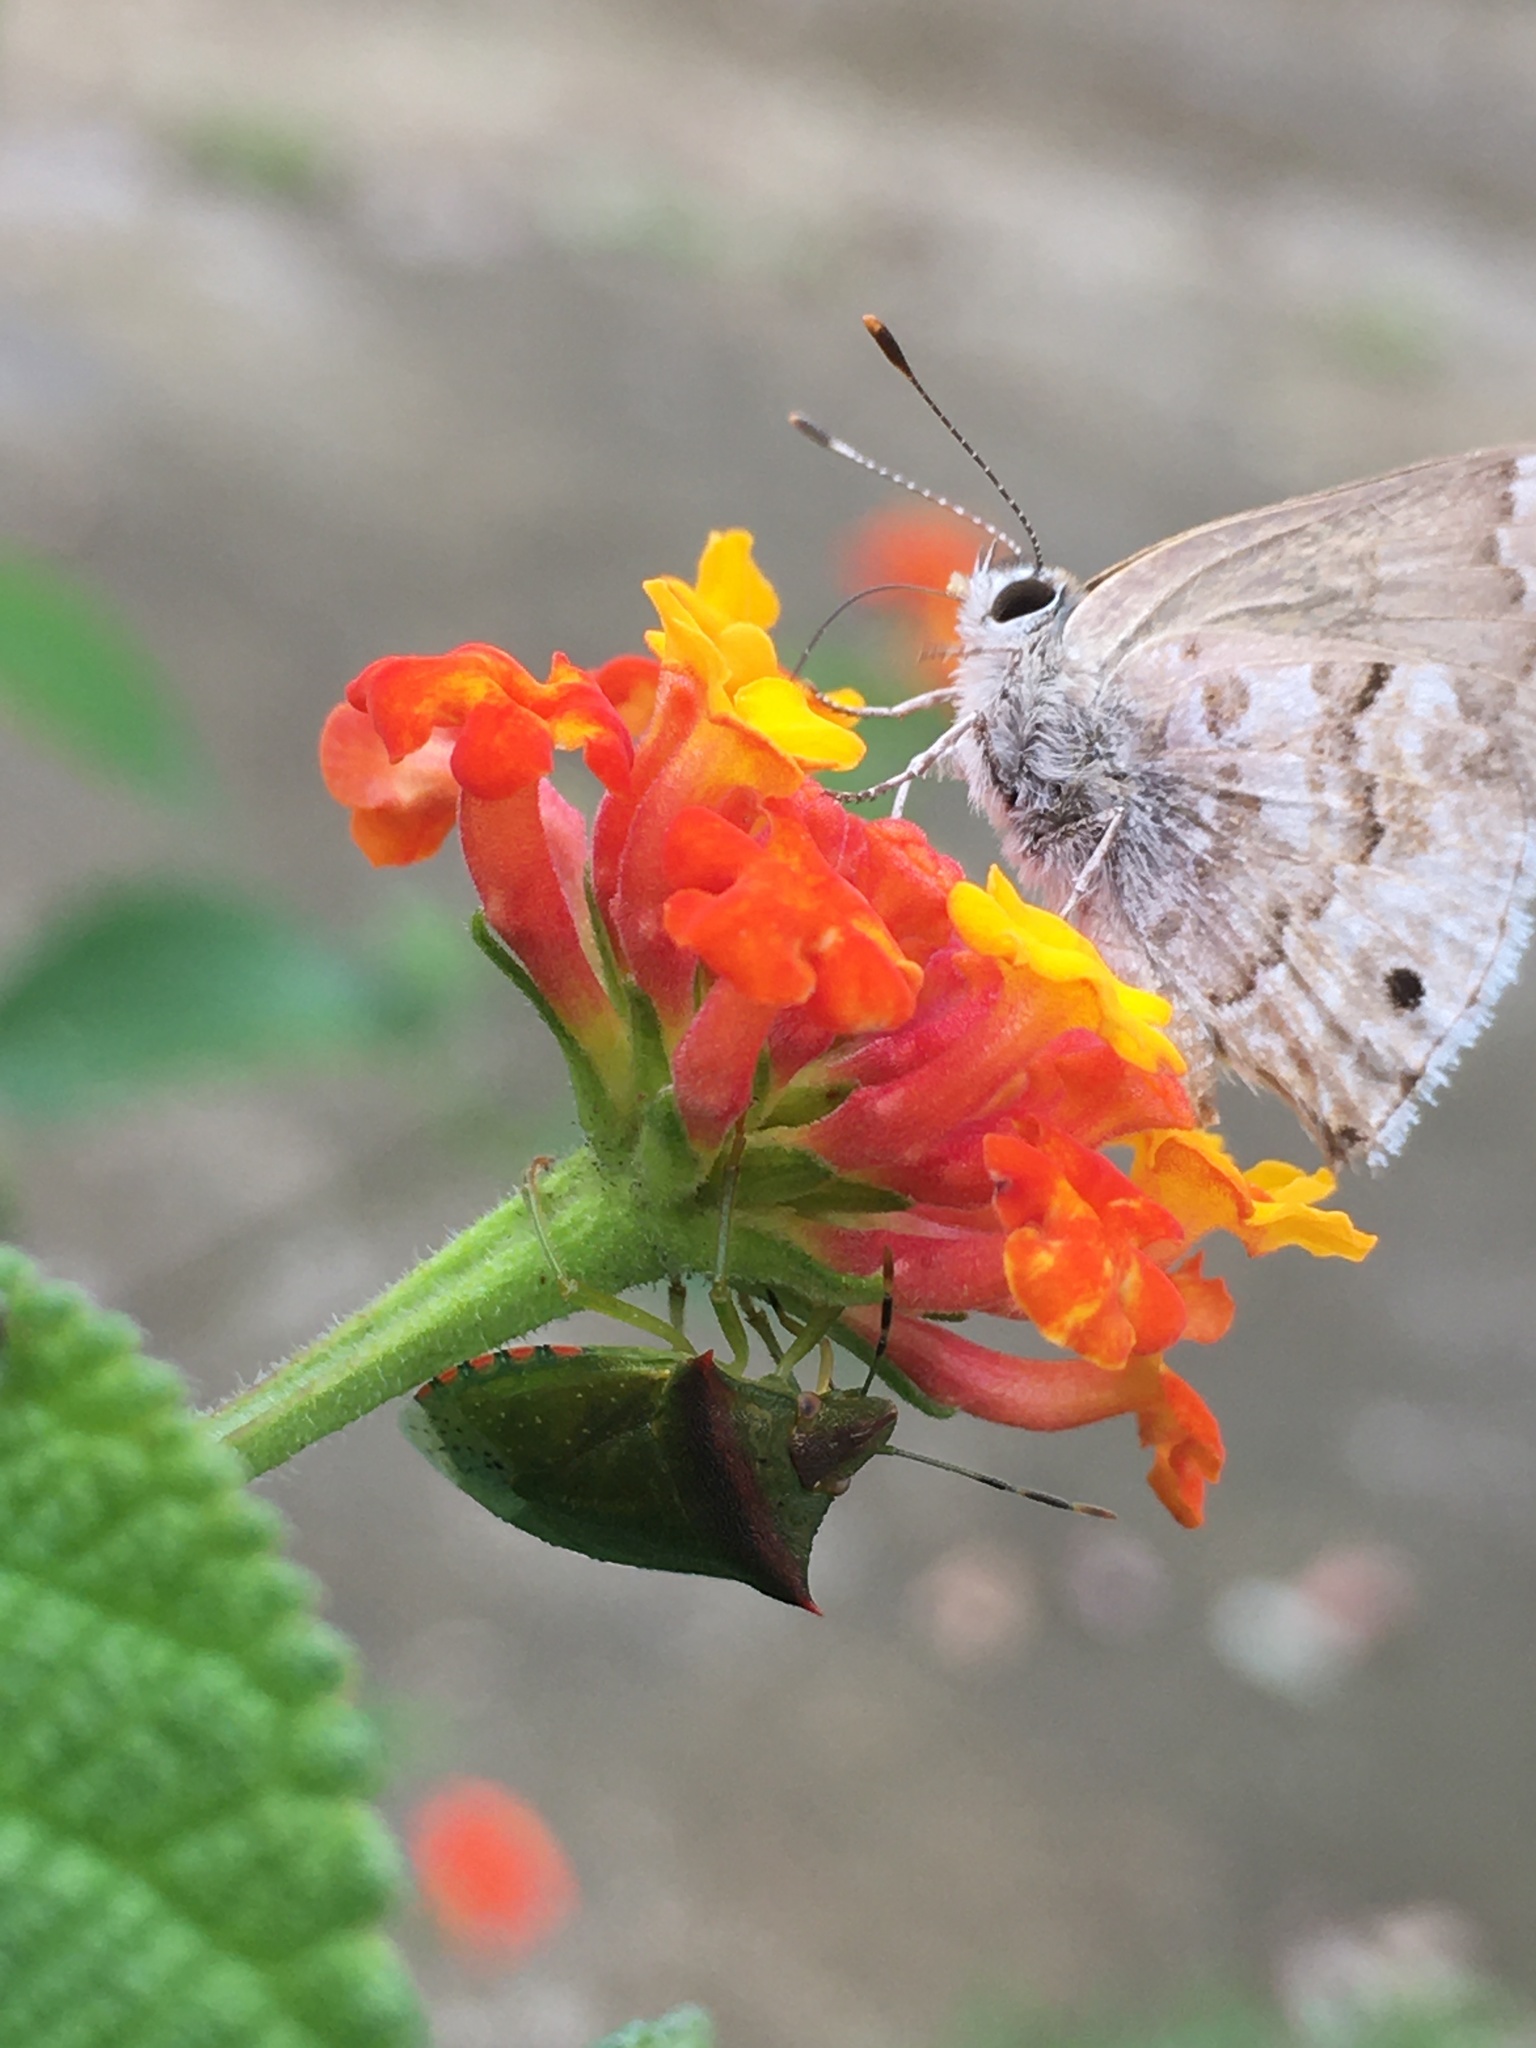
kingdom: Animalia
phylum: Arthropoda
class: Insecta
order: Lepidoptera
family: Lycaenidae
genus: Thecla
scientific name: Thecla cestri
